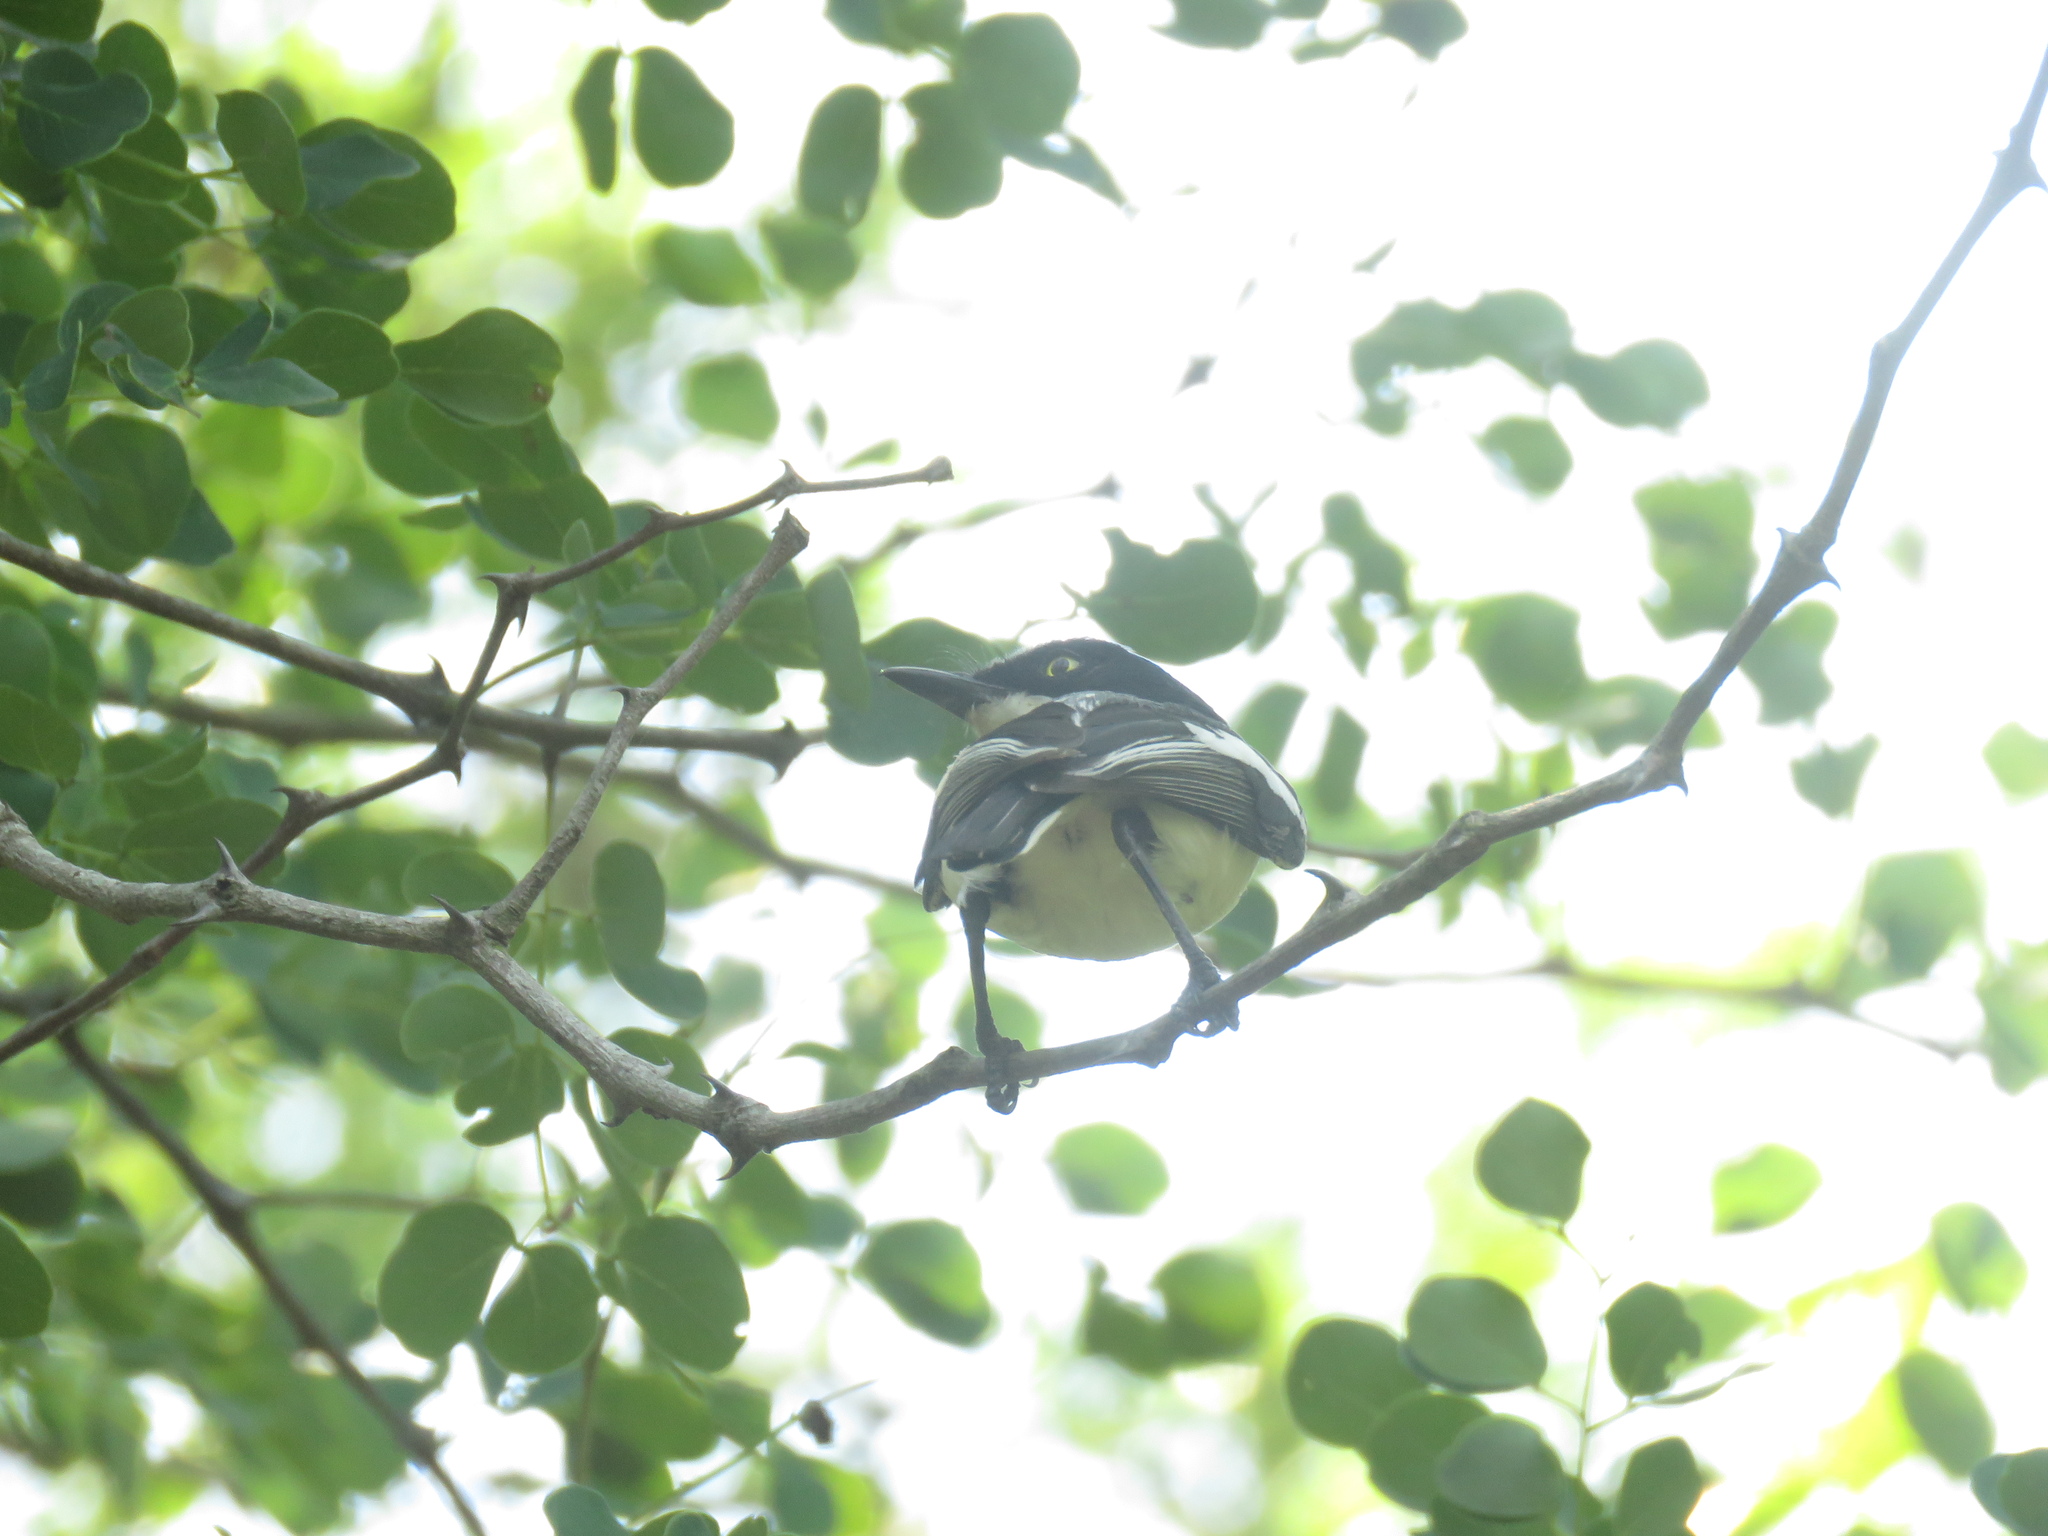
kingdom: Animalia
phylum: Chordata
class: Aves
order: Passeriformes
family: Platysteiridae
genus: Batis
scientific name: Batis molitor
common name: Chinspot batis
